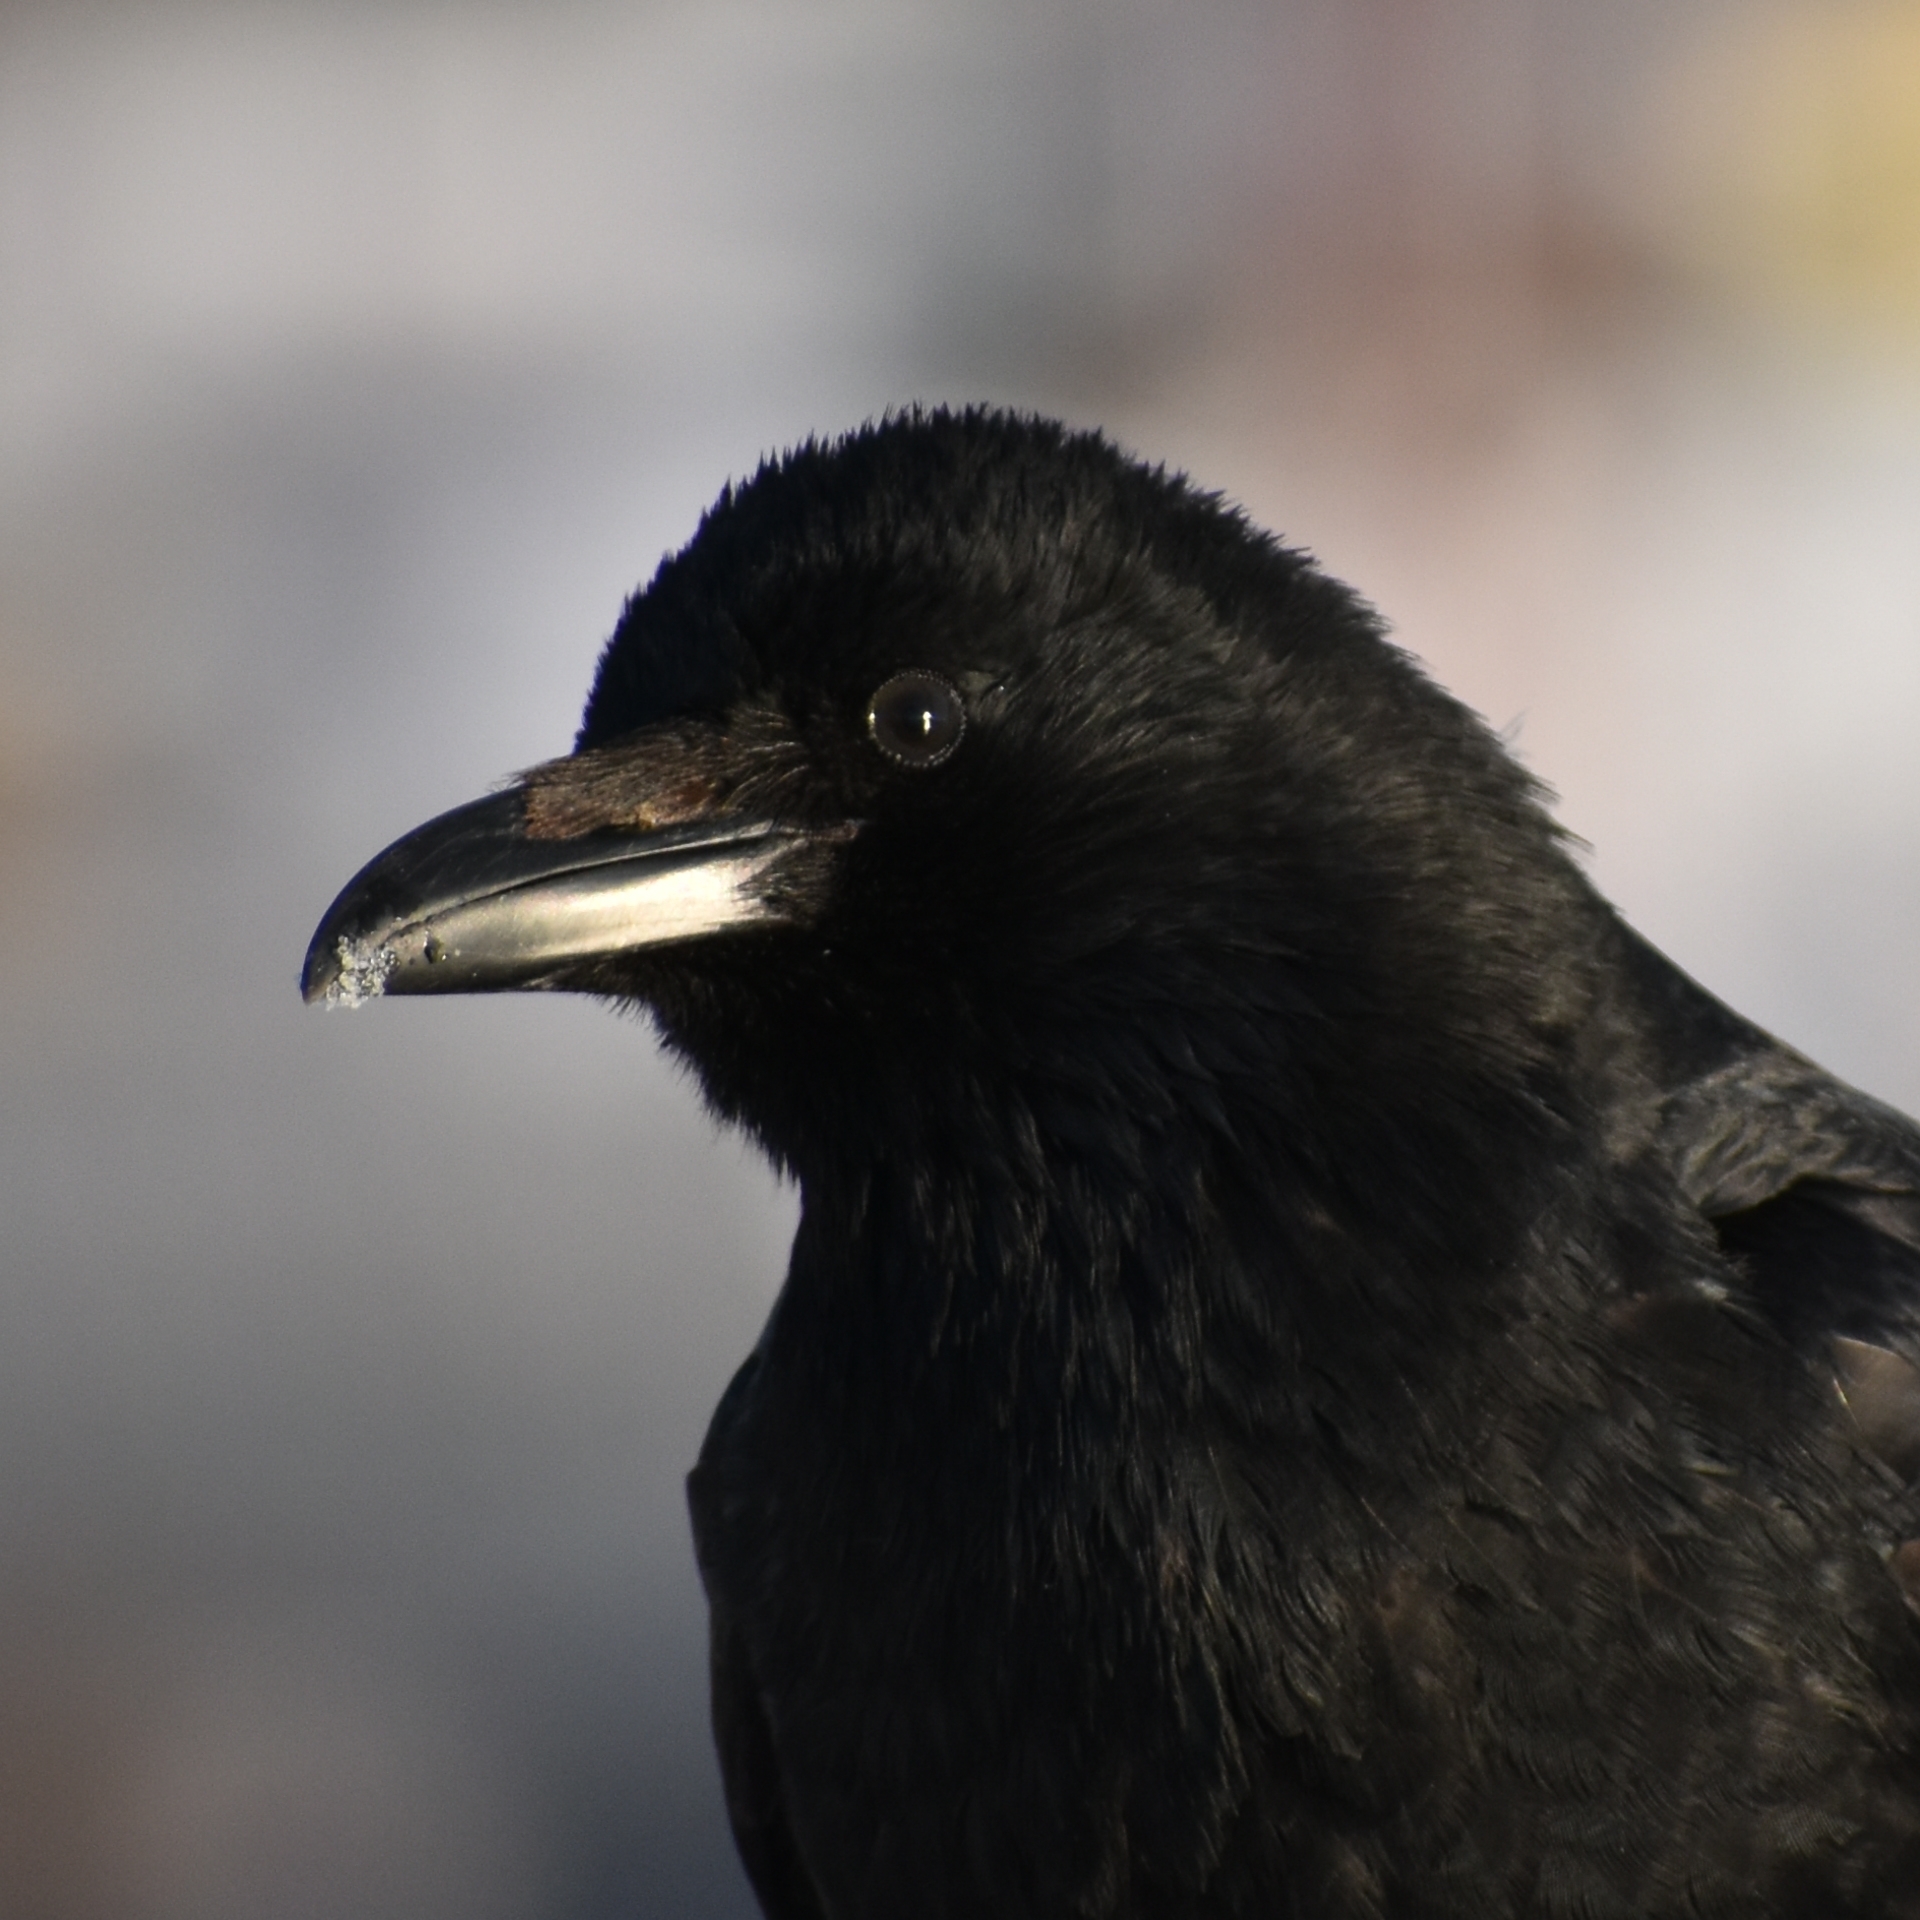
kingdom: Animalia
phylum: Chordata
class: Aves
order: Passeriformes
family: Corvidae
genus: Corvus
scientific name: Corvus corone
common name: Carrion crow
